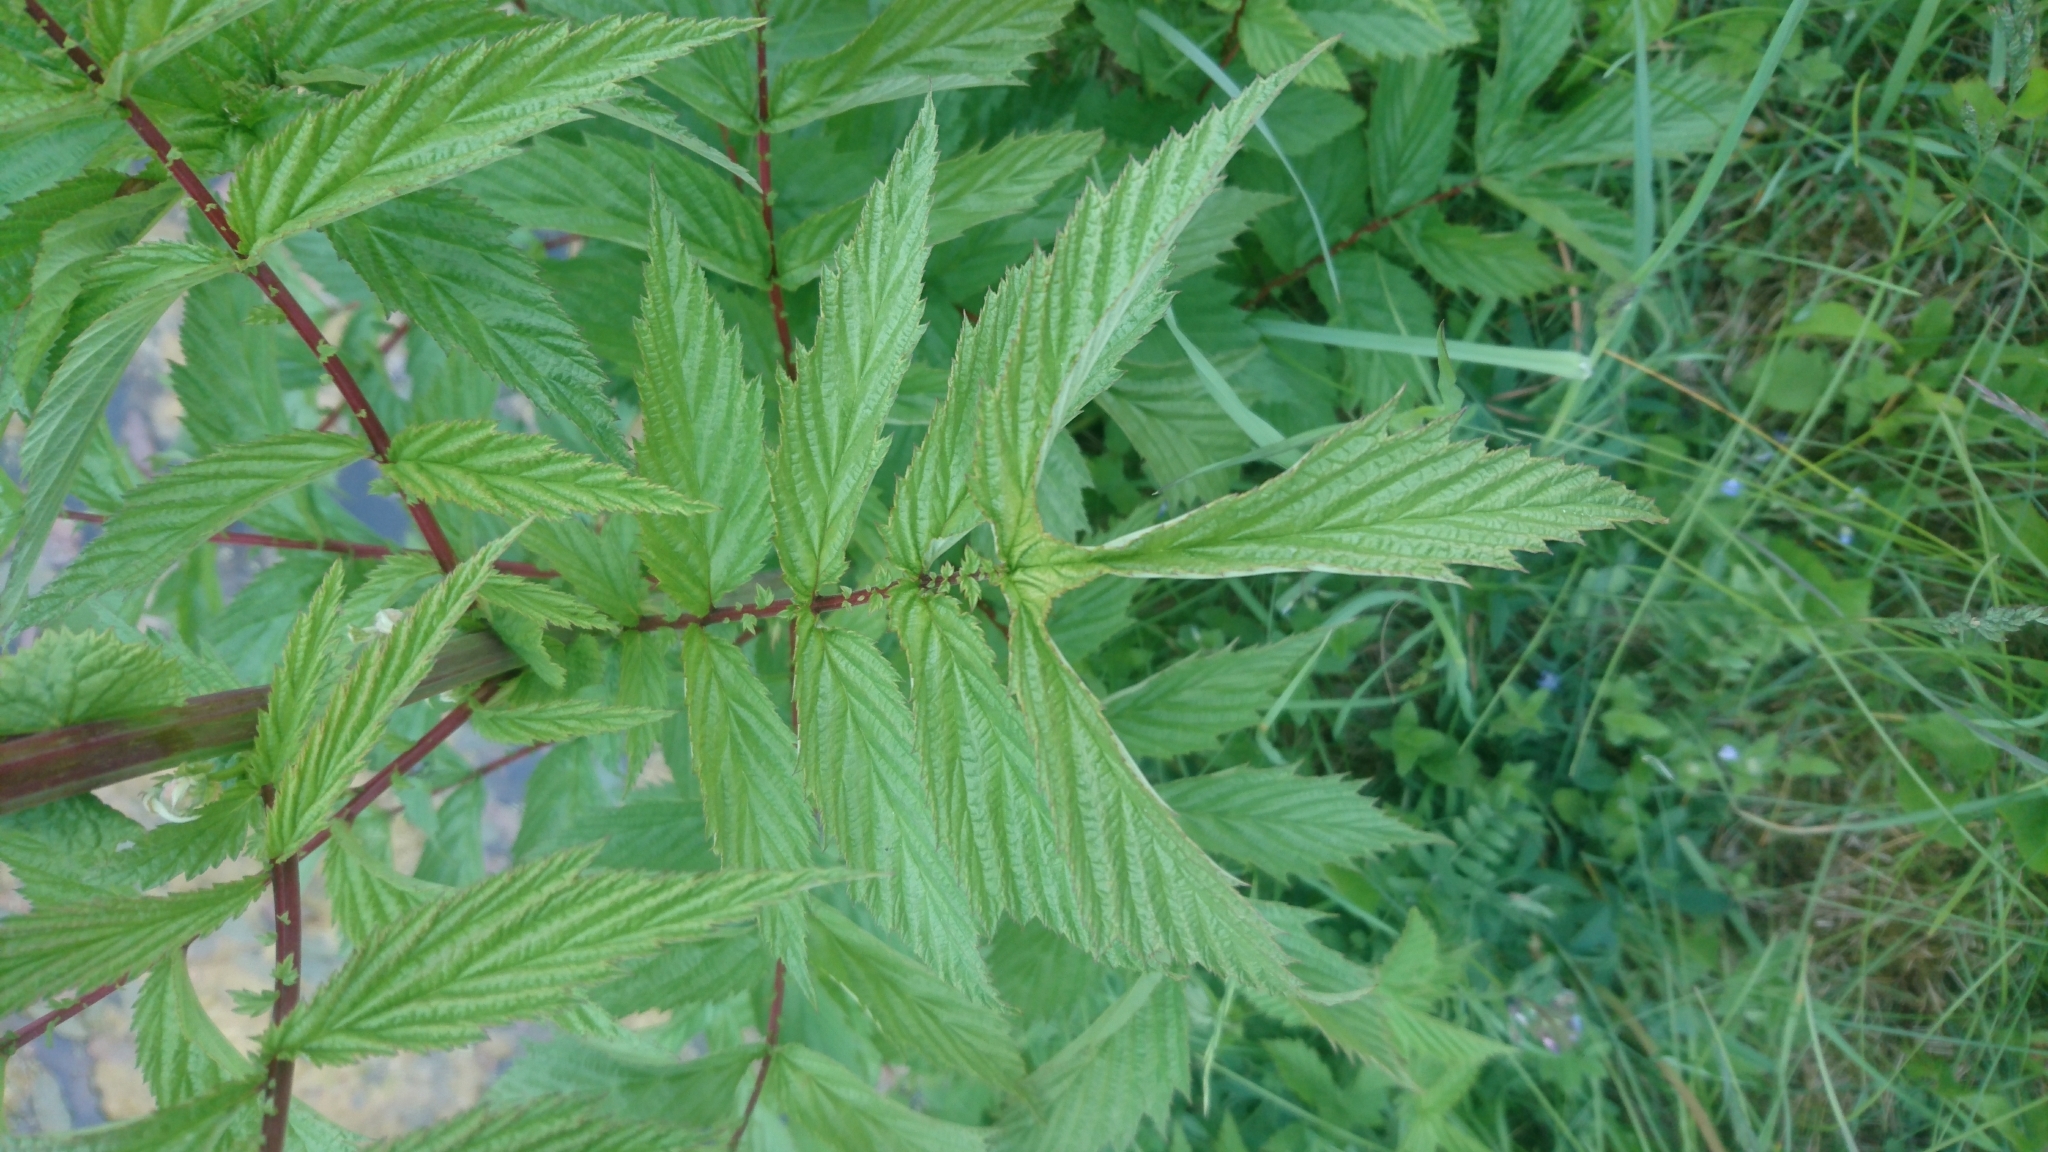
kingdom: Plantae
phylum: Tracheophyta
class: Magnoliopsida
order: Rosales
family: Rosaceae
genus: Filipendula
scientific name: Filipendula ulmaria
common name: Meadowsweet
